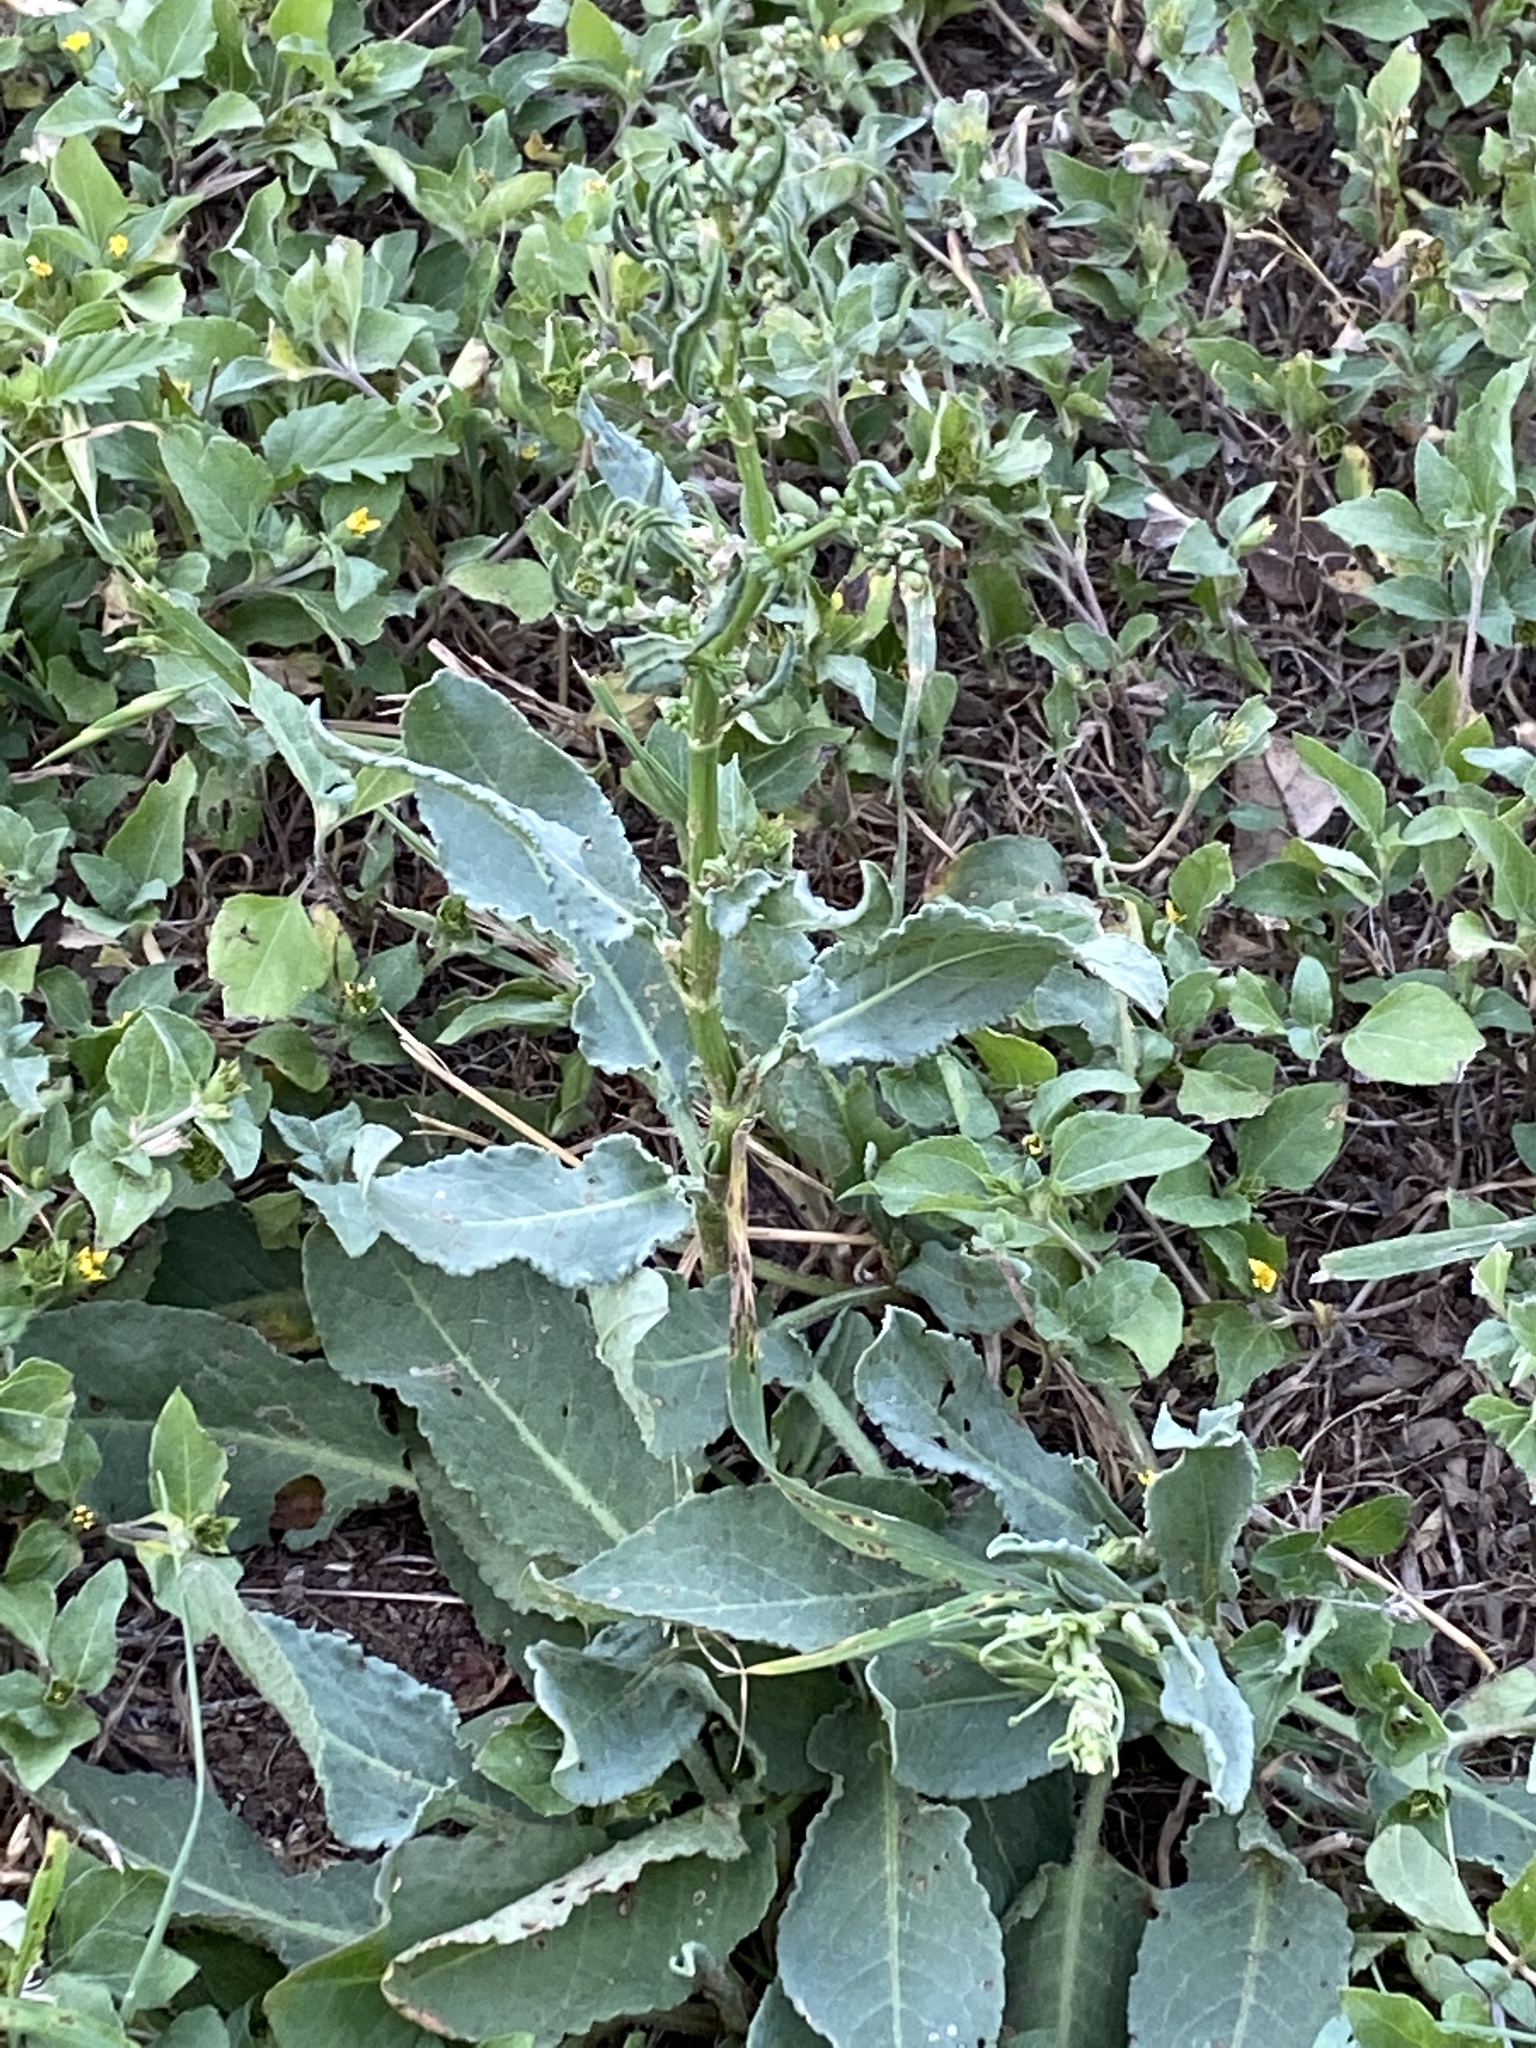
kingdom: Plantae
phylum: Tracheophyta
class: Magnoliopsida
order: Caryophyllales
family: Polygonaceae
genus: Rumex
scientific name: Rumex pulcher
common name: Fiddle dock
